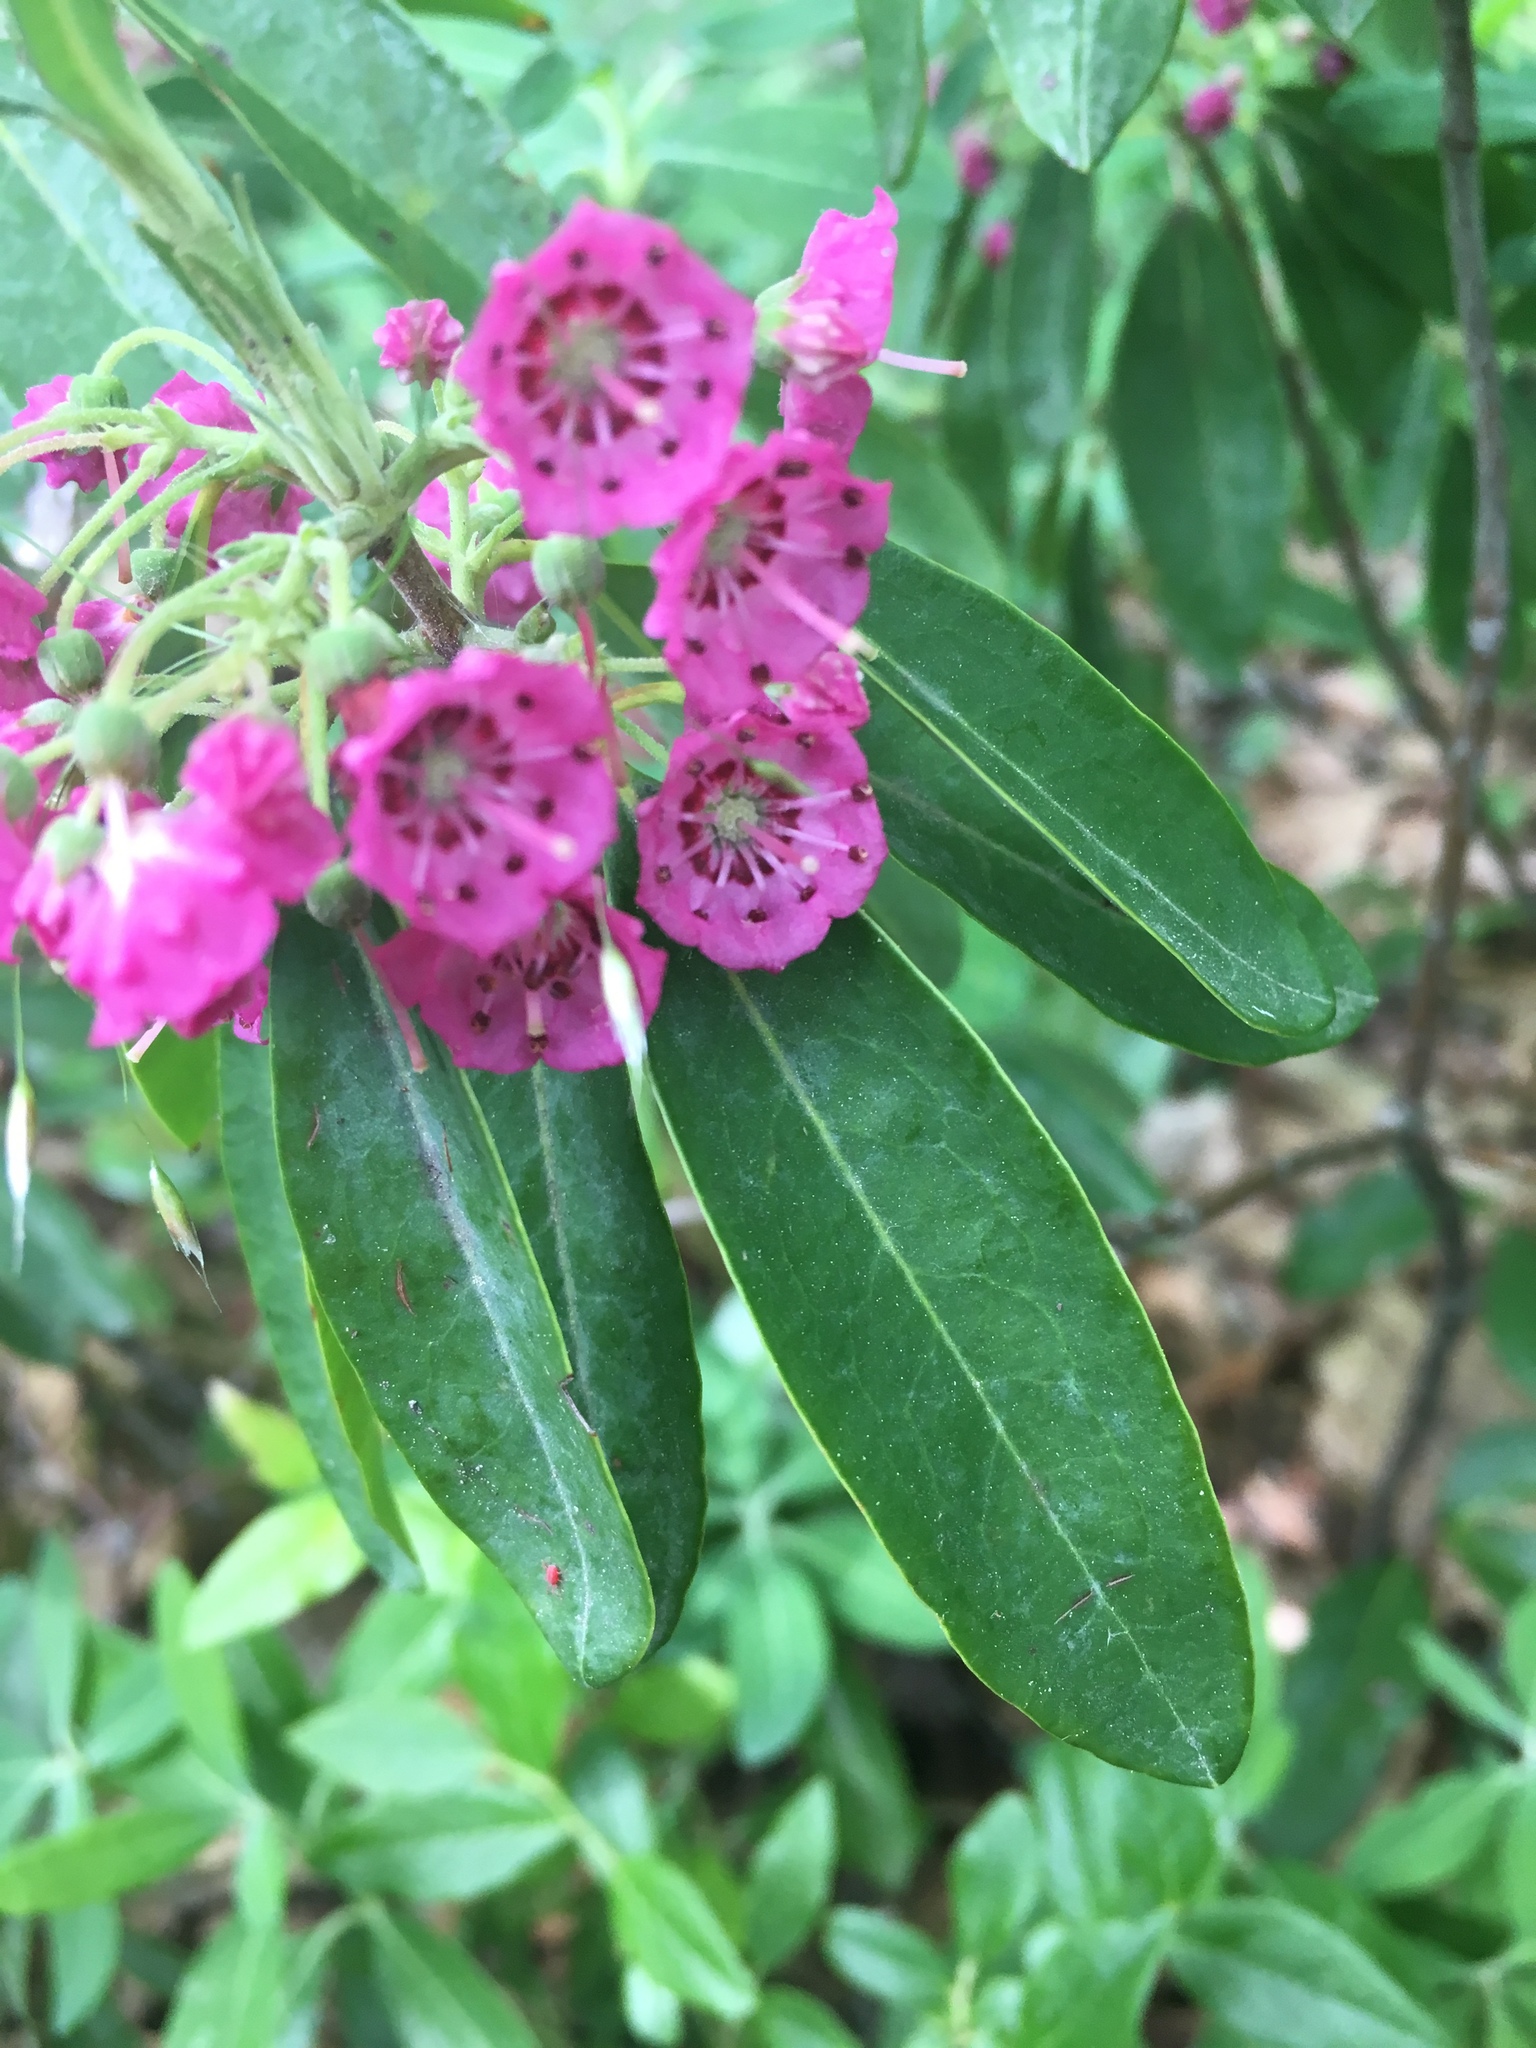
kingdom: Plantae
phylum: Tracheophyta
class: Magnoliopsida
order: Ericales
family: Ericaceae
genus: Kalmia
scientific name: Kalmia angustifolia
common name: Sheep-laurel
